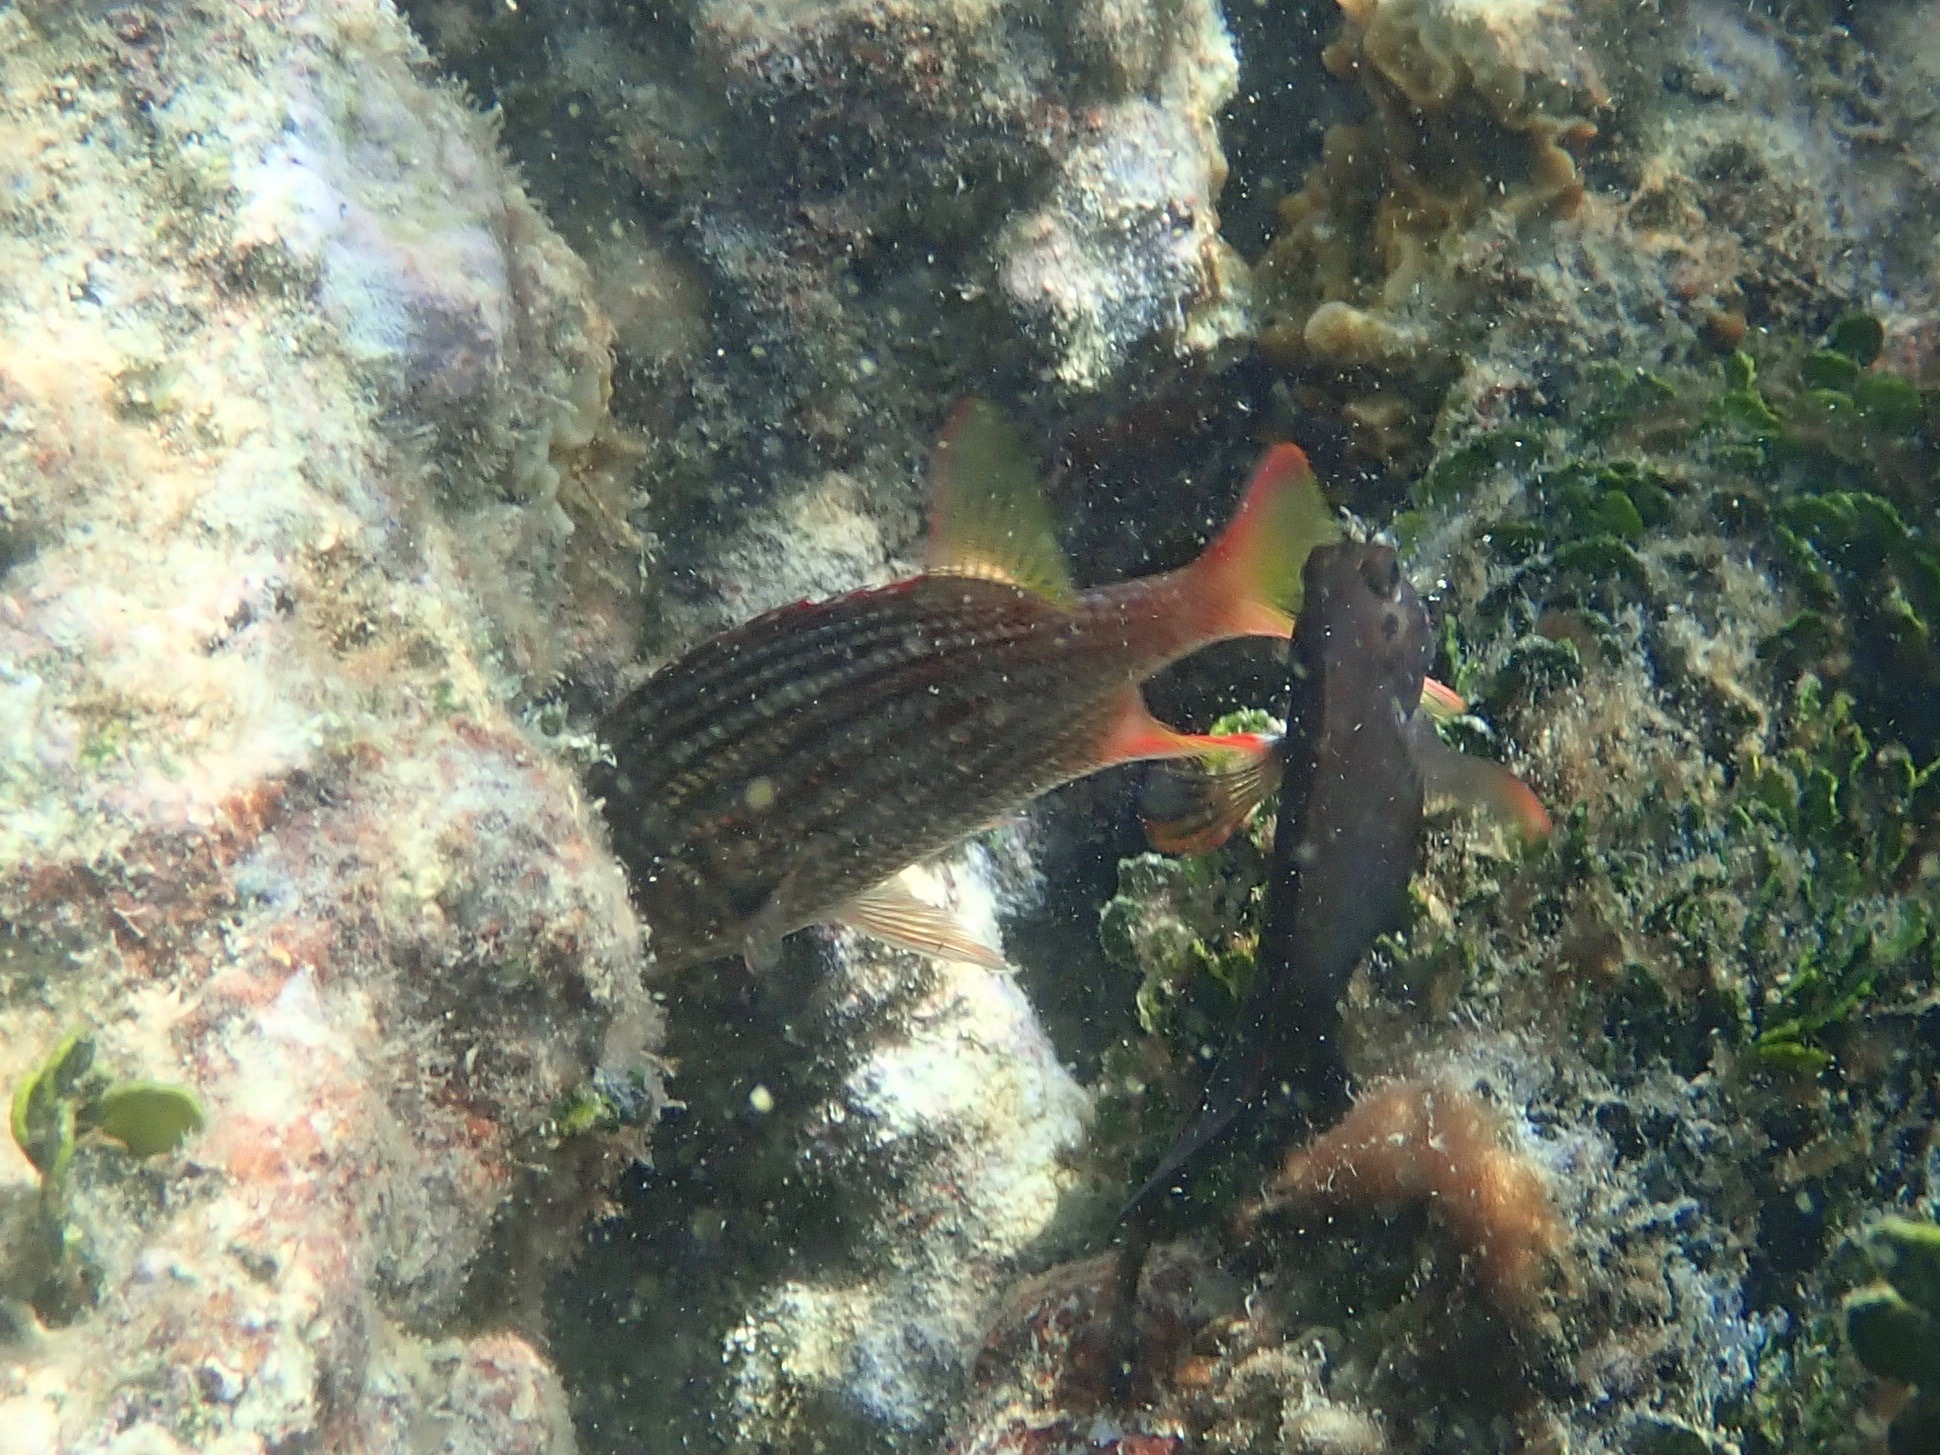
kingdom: Animalia
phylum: Chordata
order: Beryciformes
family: Holocentridae
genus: Neoniphon
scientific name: Neoniphon vexillarium
